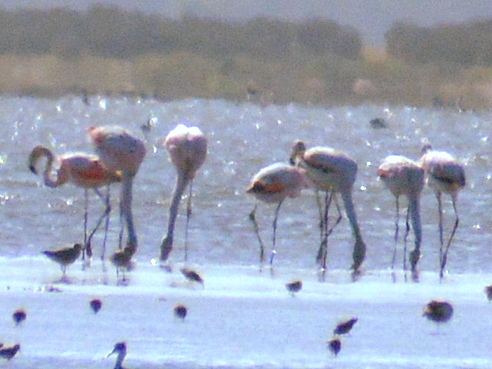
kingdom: Animalia
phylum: Chordata
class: Aves
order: Phoenicopteriformes
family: Phoenicopteridae
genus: Phoenicopterus
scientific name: Phoenicopterus chilensis
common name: Chilean flamingo
